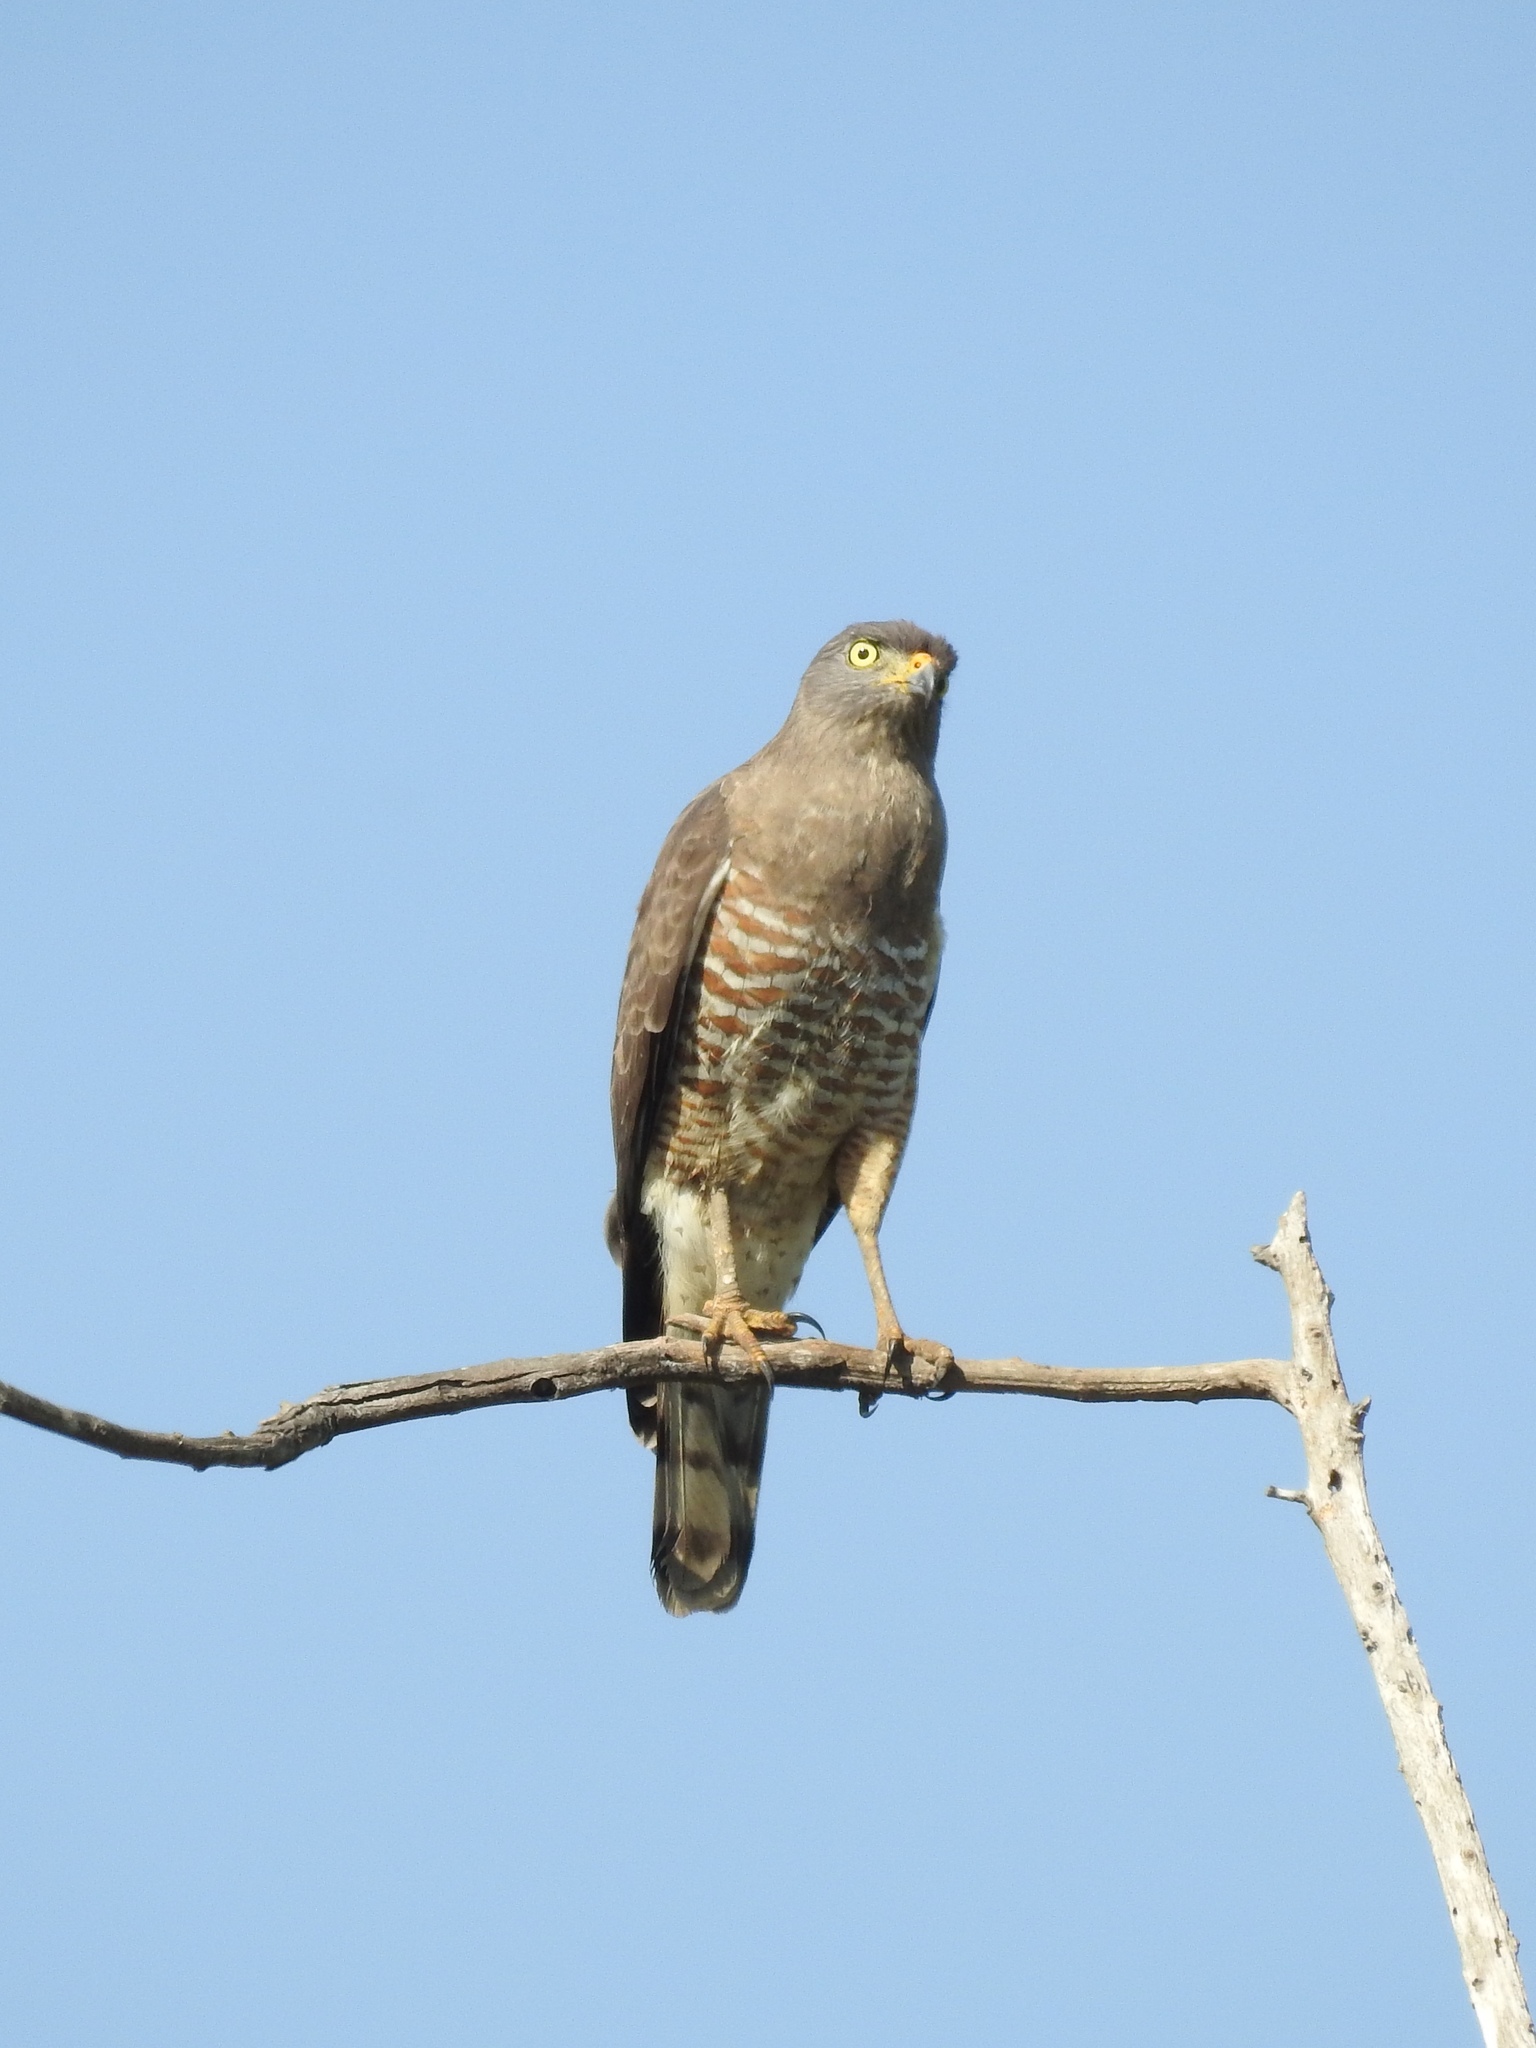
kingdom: Animalia
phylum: Chordata
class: Aves
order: Accipitriformes
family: Accipitridae
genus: Rupornis
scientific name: Rupornis magnirostris
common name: Roadside hawk
